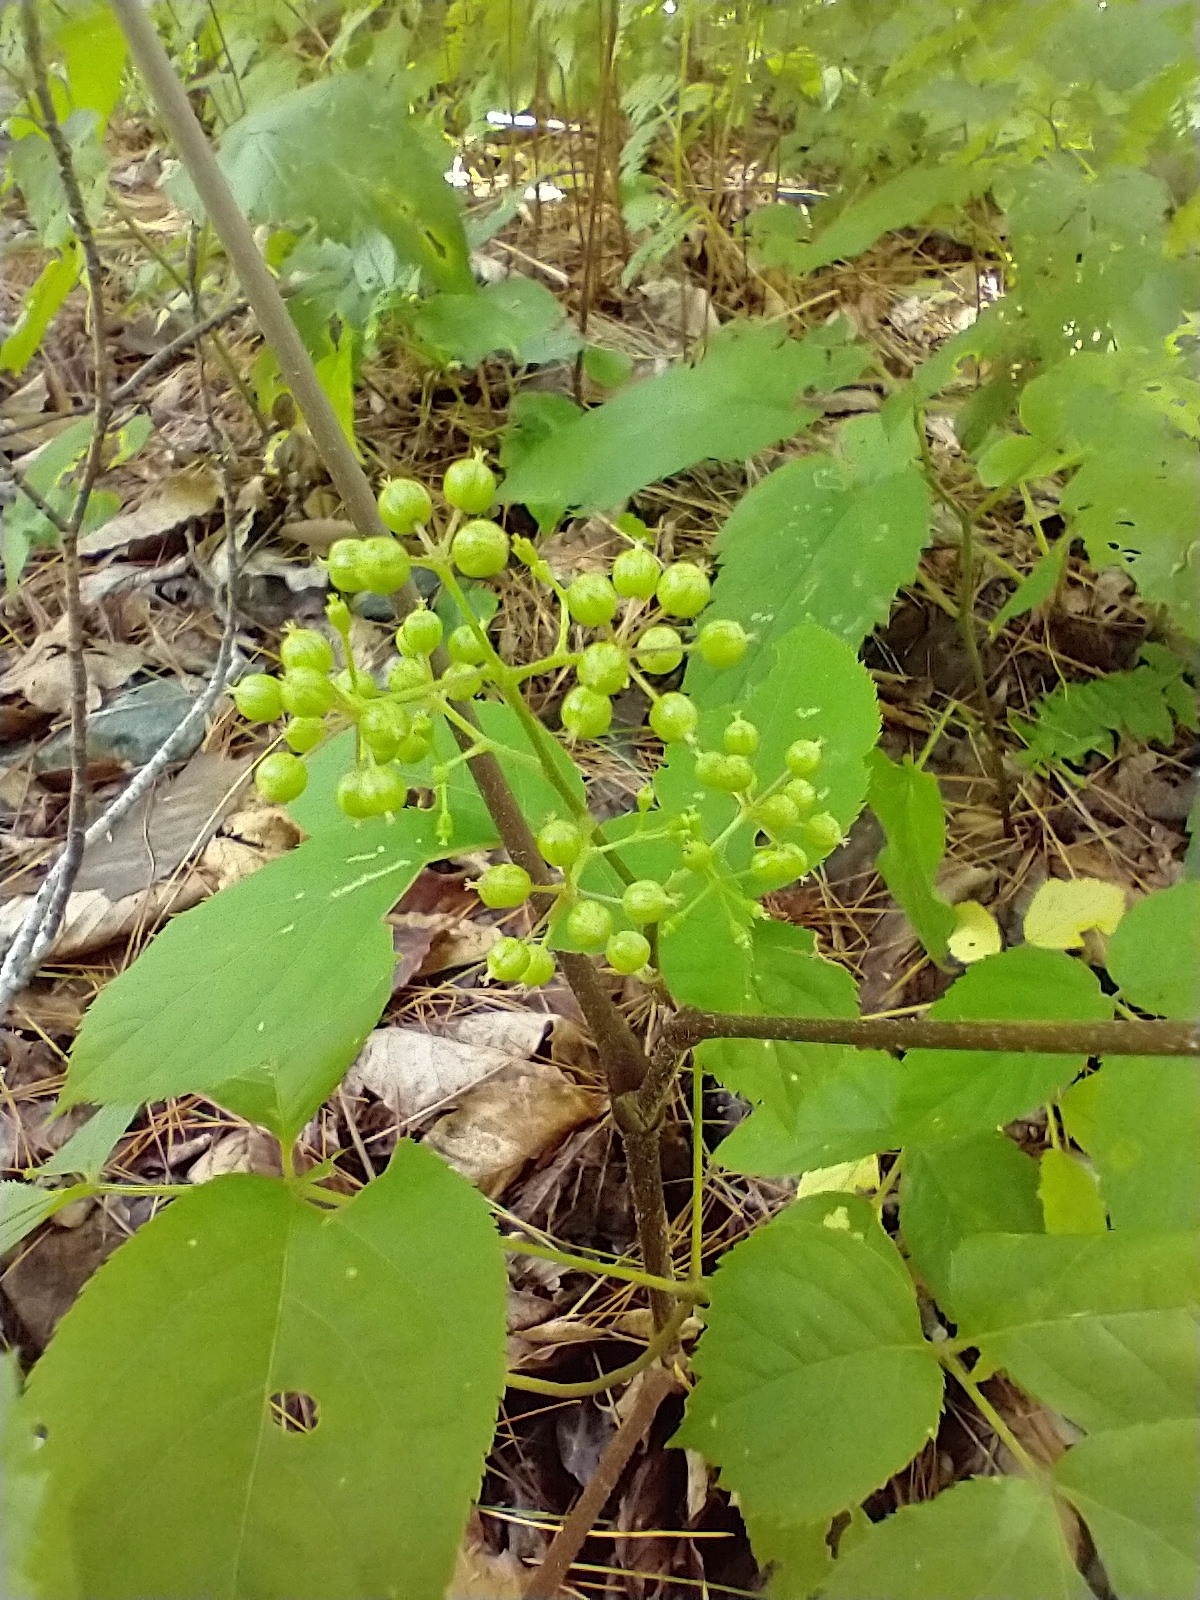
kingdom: Plantae
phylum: Tracheophyta
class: Magnoliopsida
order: Apiales
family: Araliaceae
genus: Aralia
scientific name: Aralia racemosa
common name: American-spikenard
